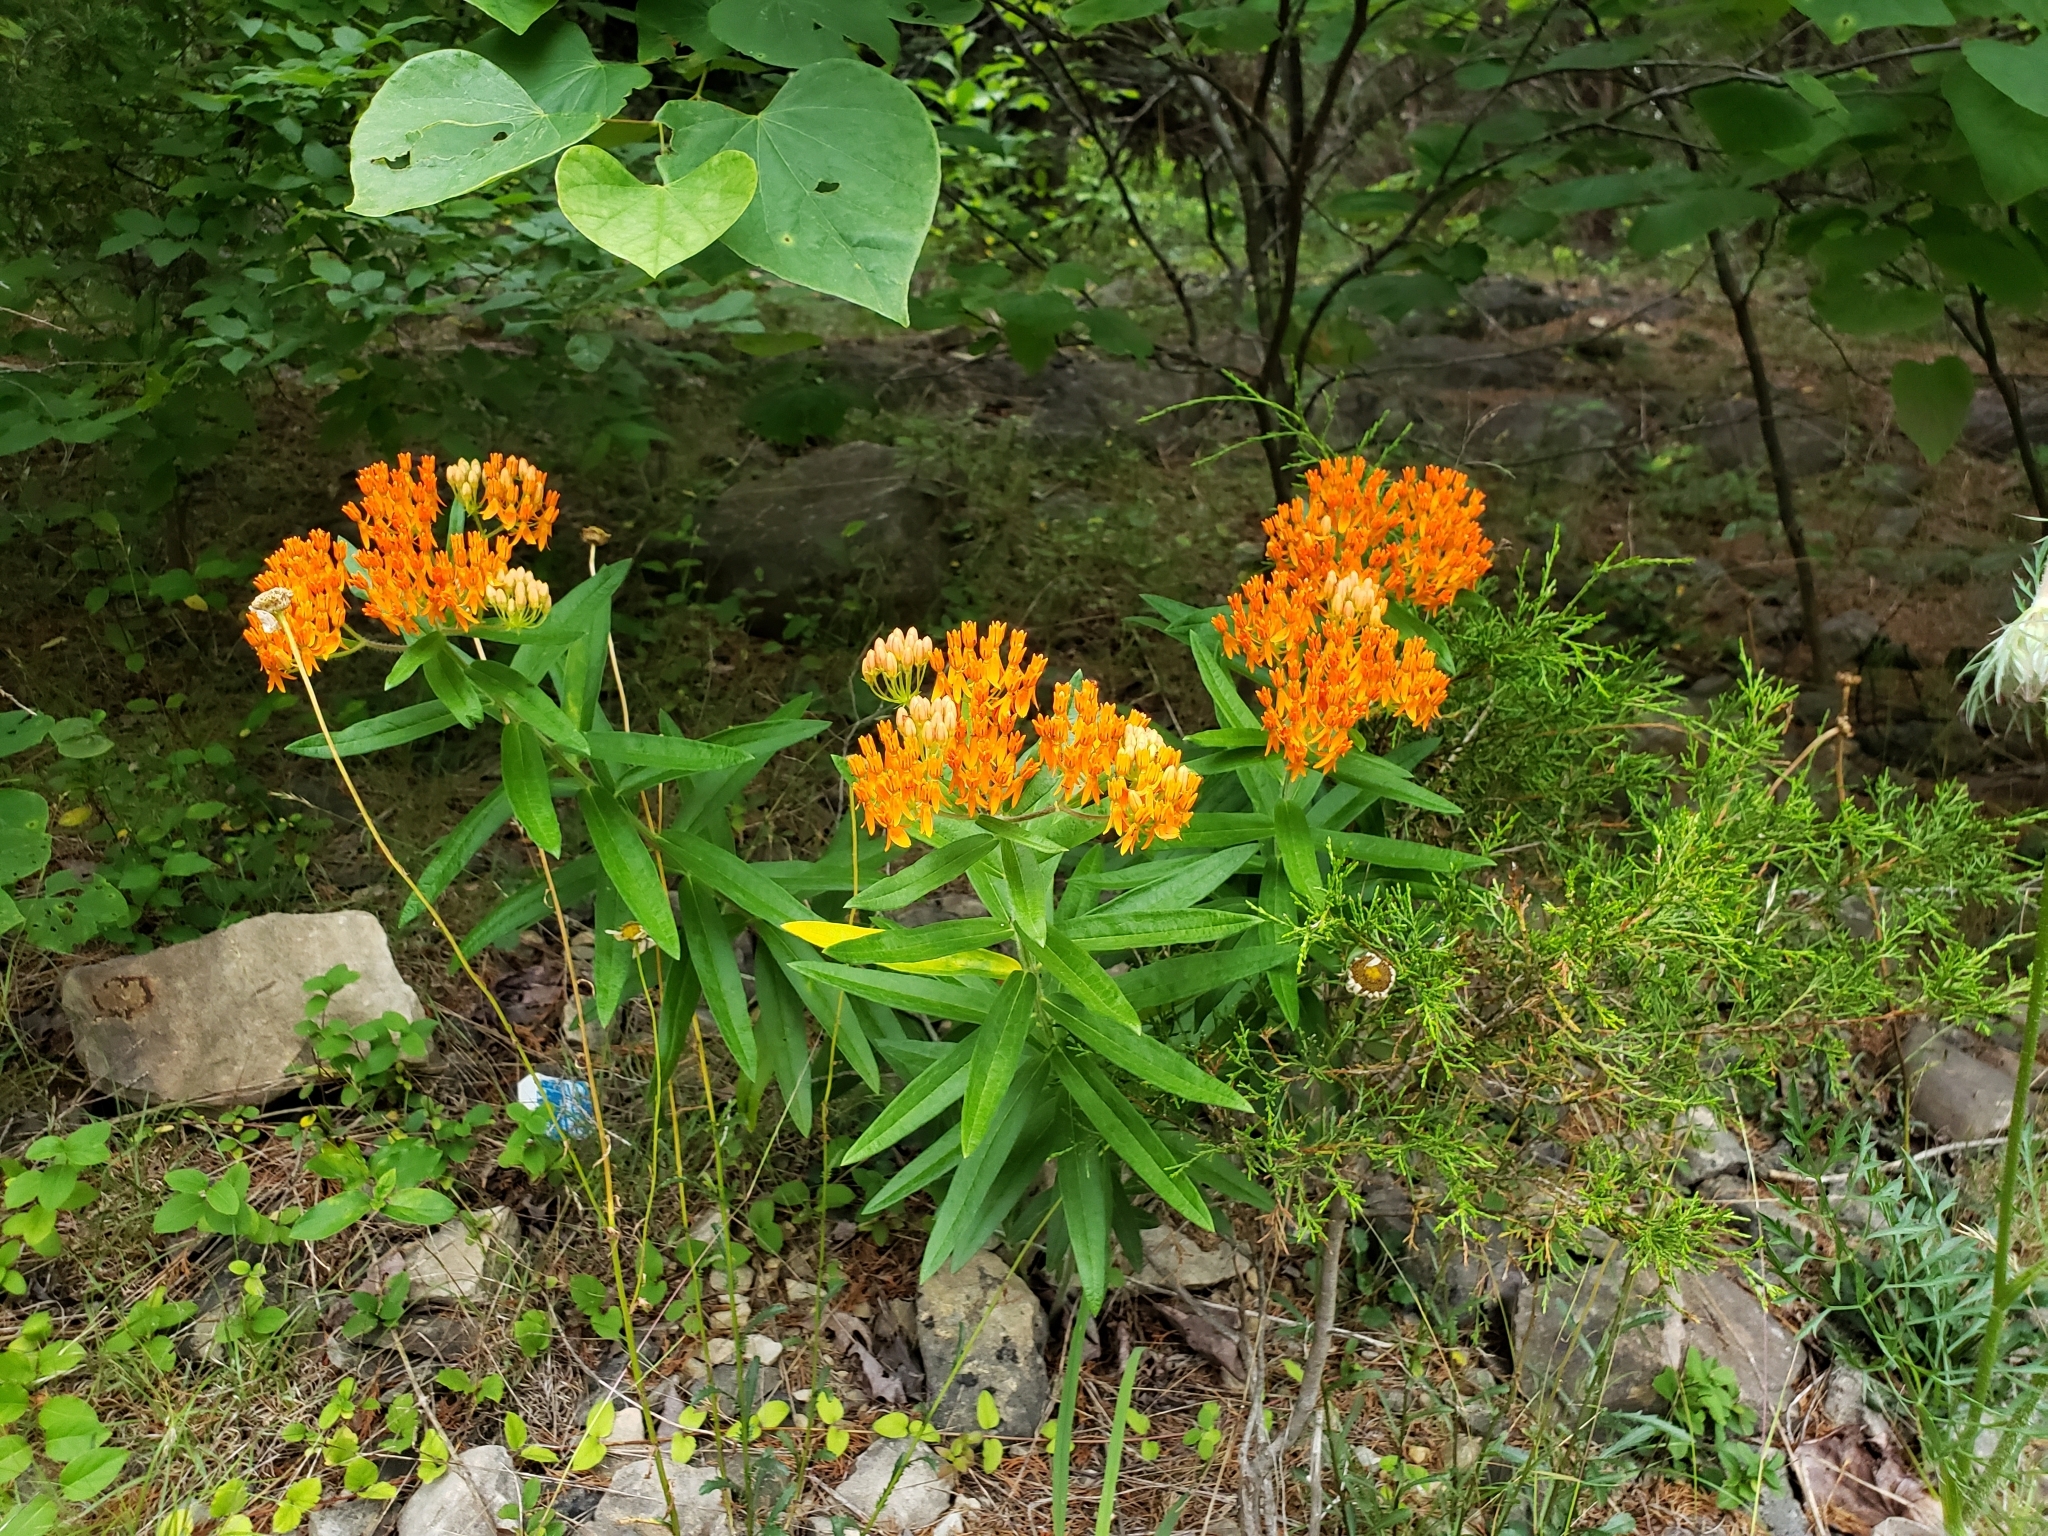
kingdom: Plantae
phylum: Tracheophyta
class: Magnoliopsida
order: Gentianales
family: Apocynaceae
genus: Asclepias
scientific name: Asclepias tuberosa
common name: Butterfly milkweed
